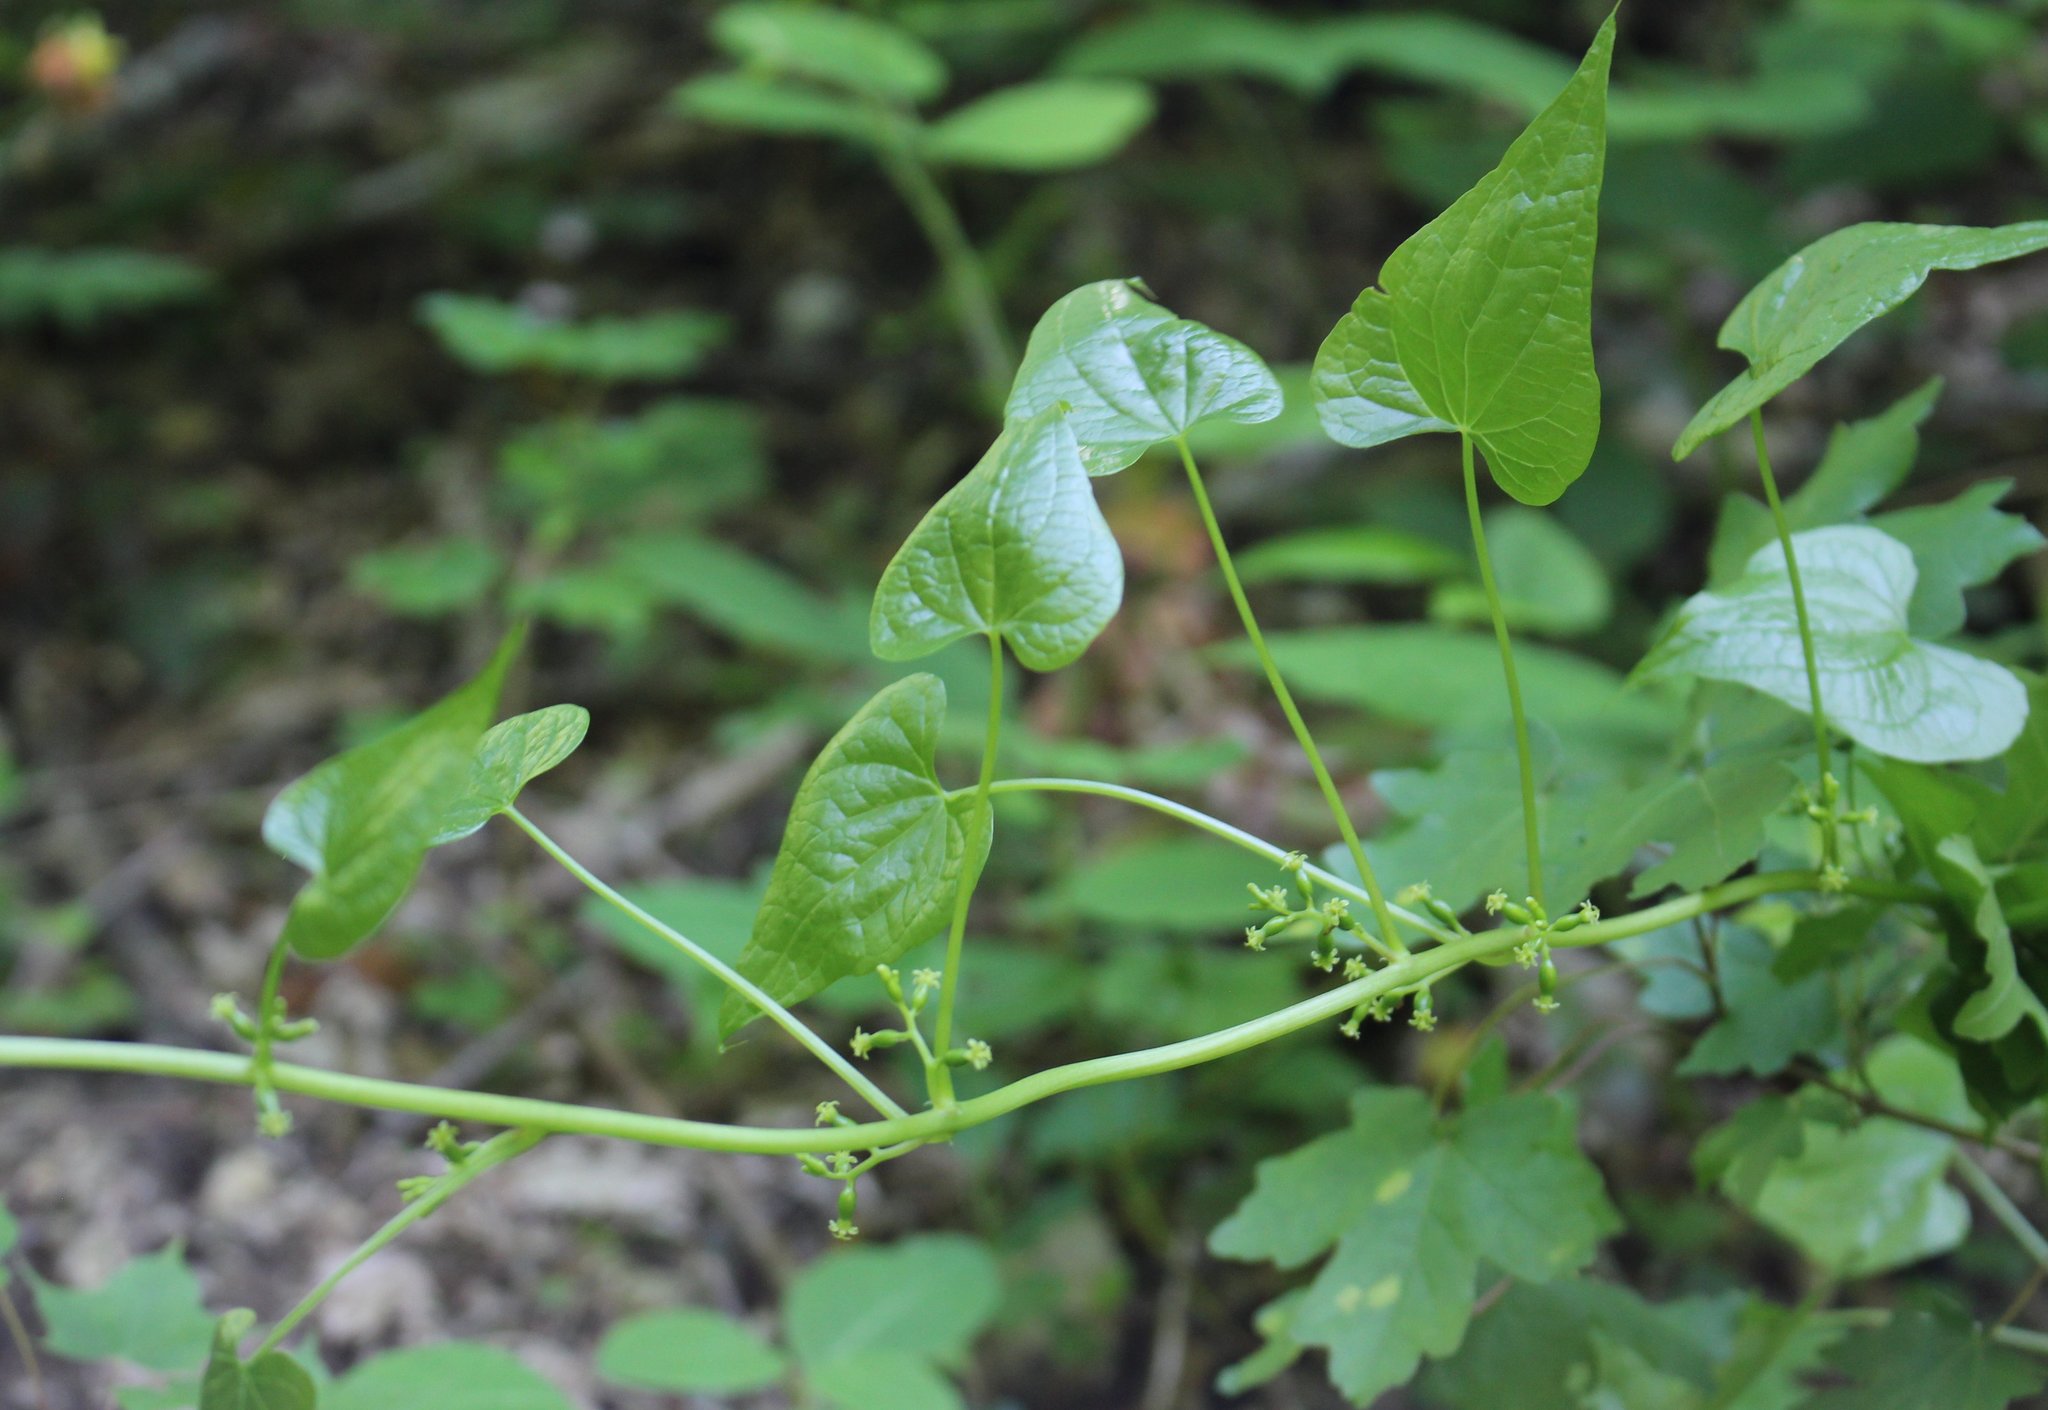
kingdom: Plantae
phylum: Tracheophyta
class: Liliopsida
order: Dioscoreales
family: Dioscoreaceae
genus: Dioscorea
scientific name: Dioscorea communis
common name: Black-bindweed
